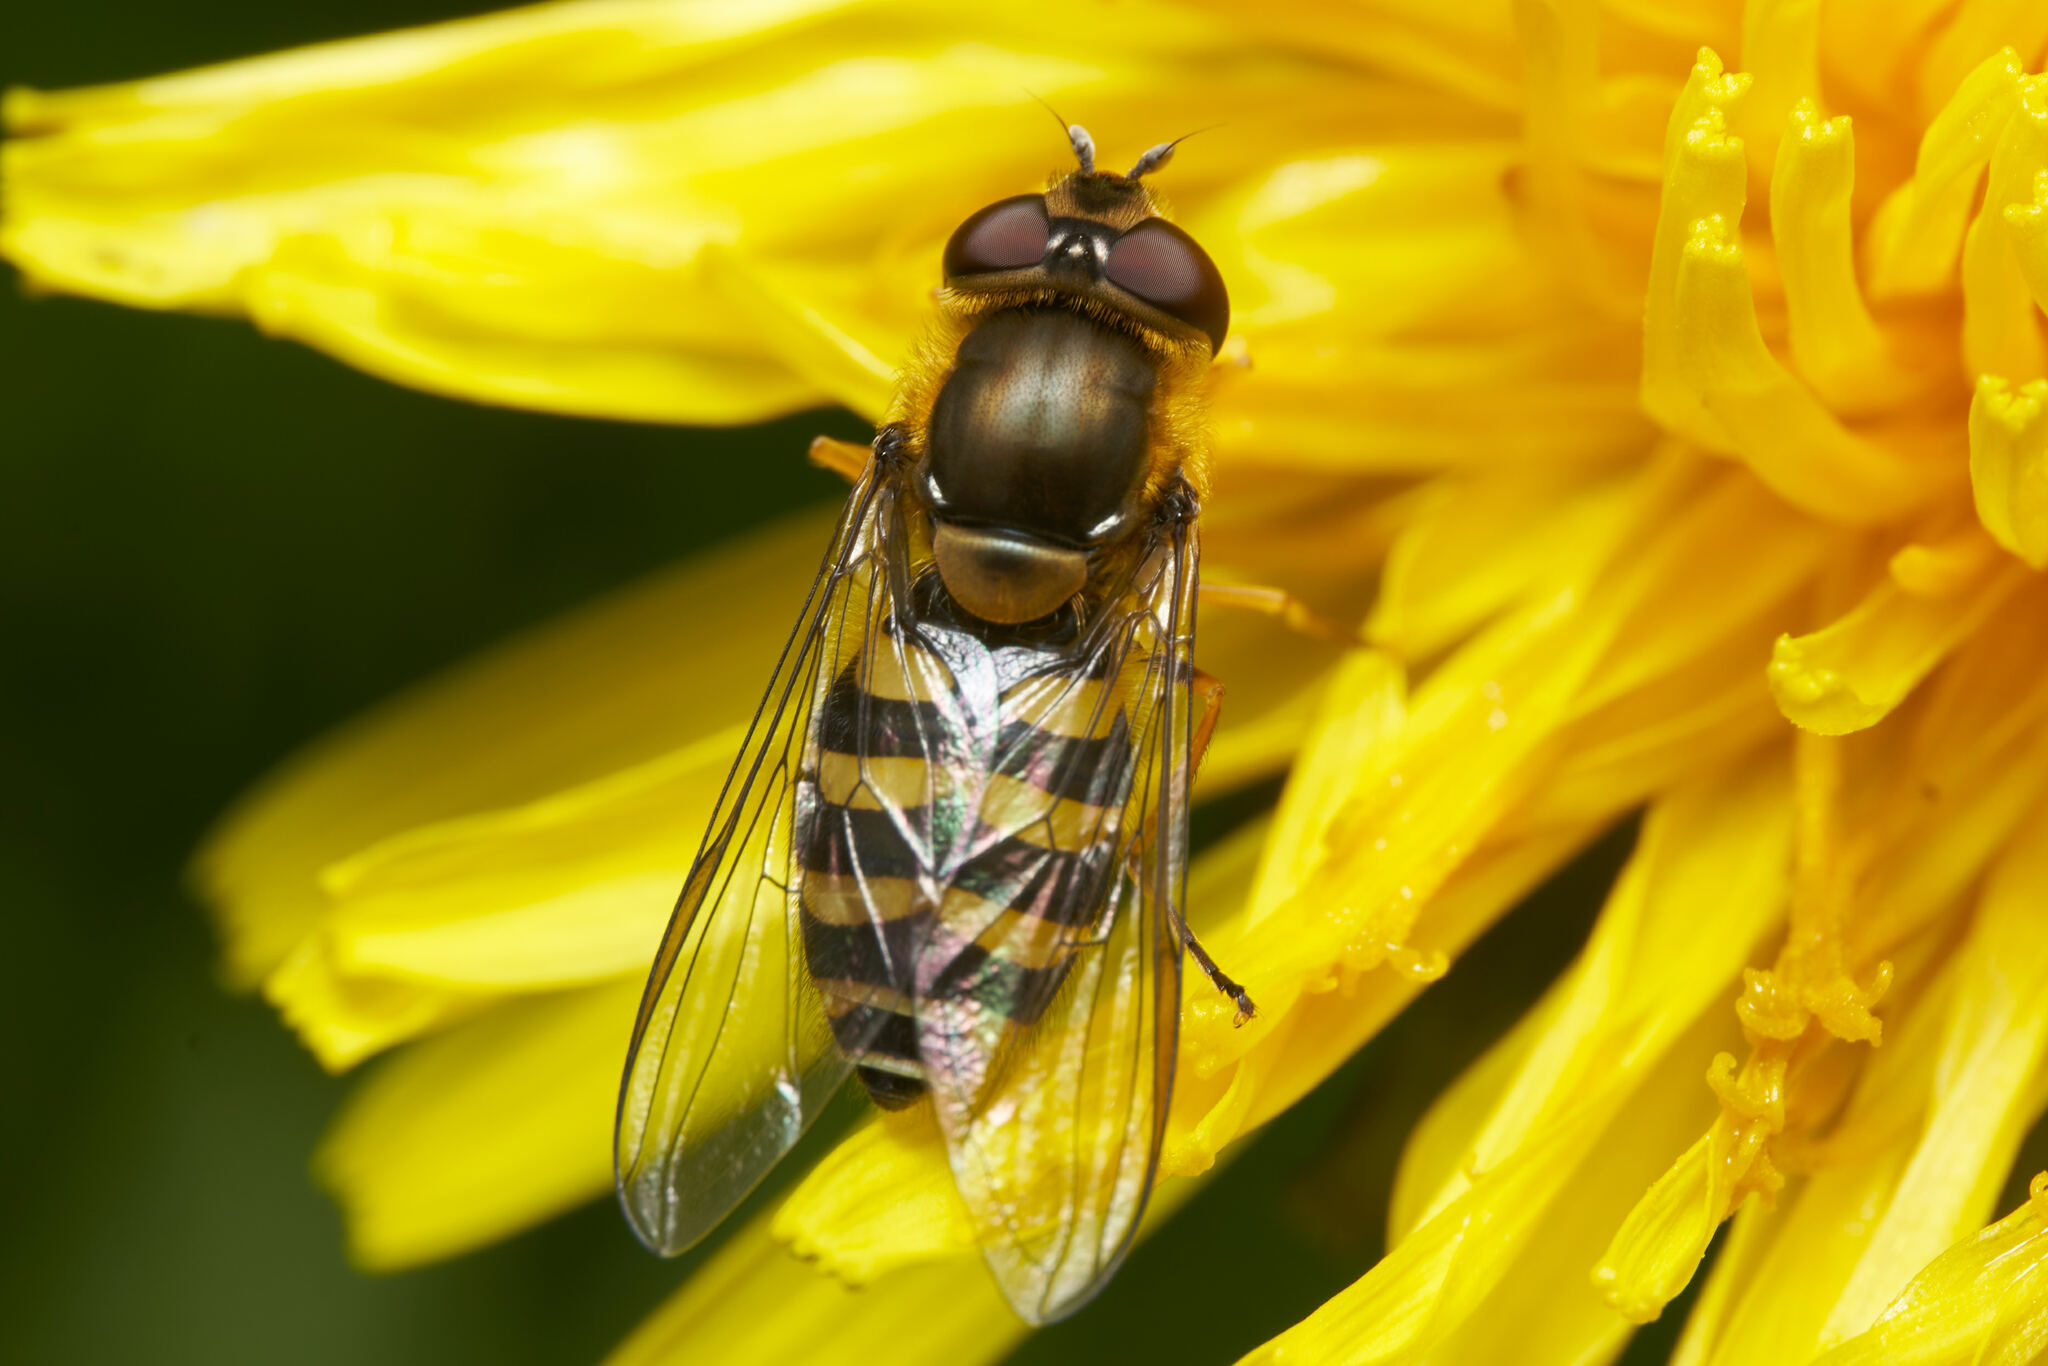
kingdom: Animalia
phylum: Arthropoda
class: Insecta
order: Diptera
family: Syrphidae
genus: Syrphus
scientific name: Syrphus
